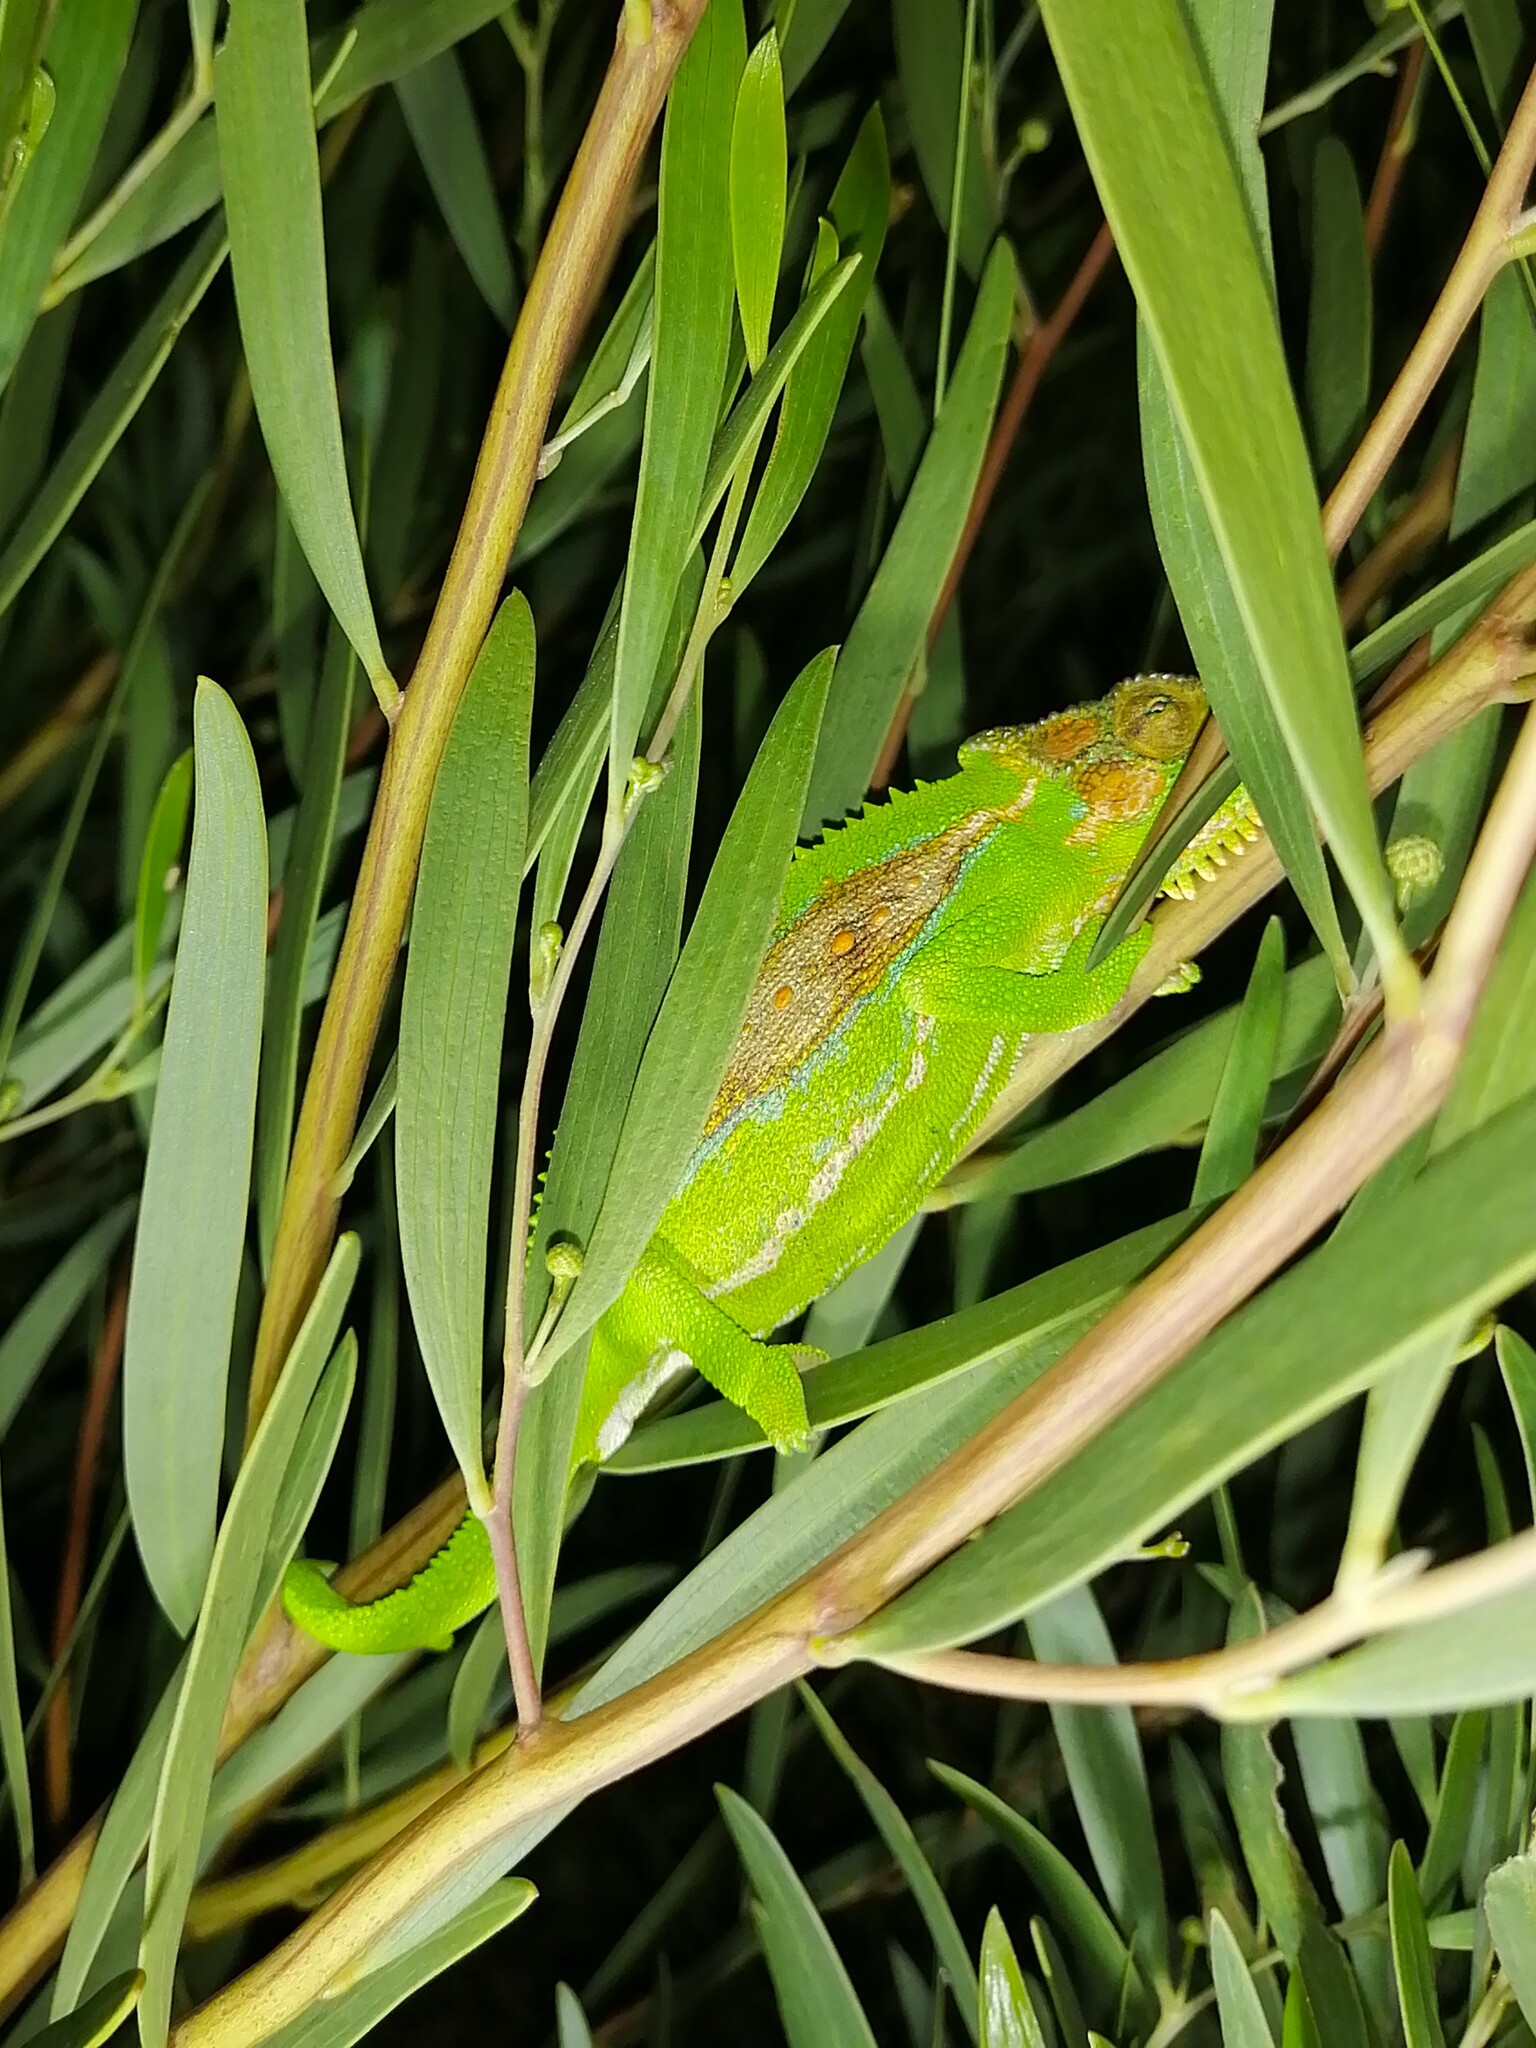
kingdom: Animalia
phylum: Chordata
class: Squamata
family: Chamaeleonidae
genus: Bradypodion
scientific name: Bradypodion pumilum
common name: Cape dwarf chameleon
